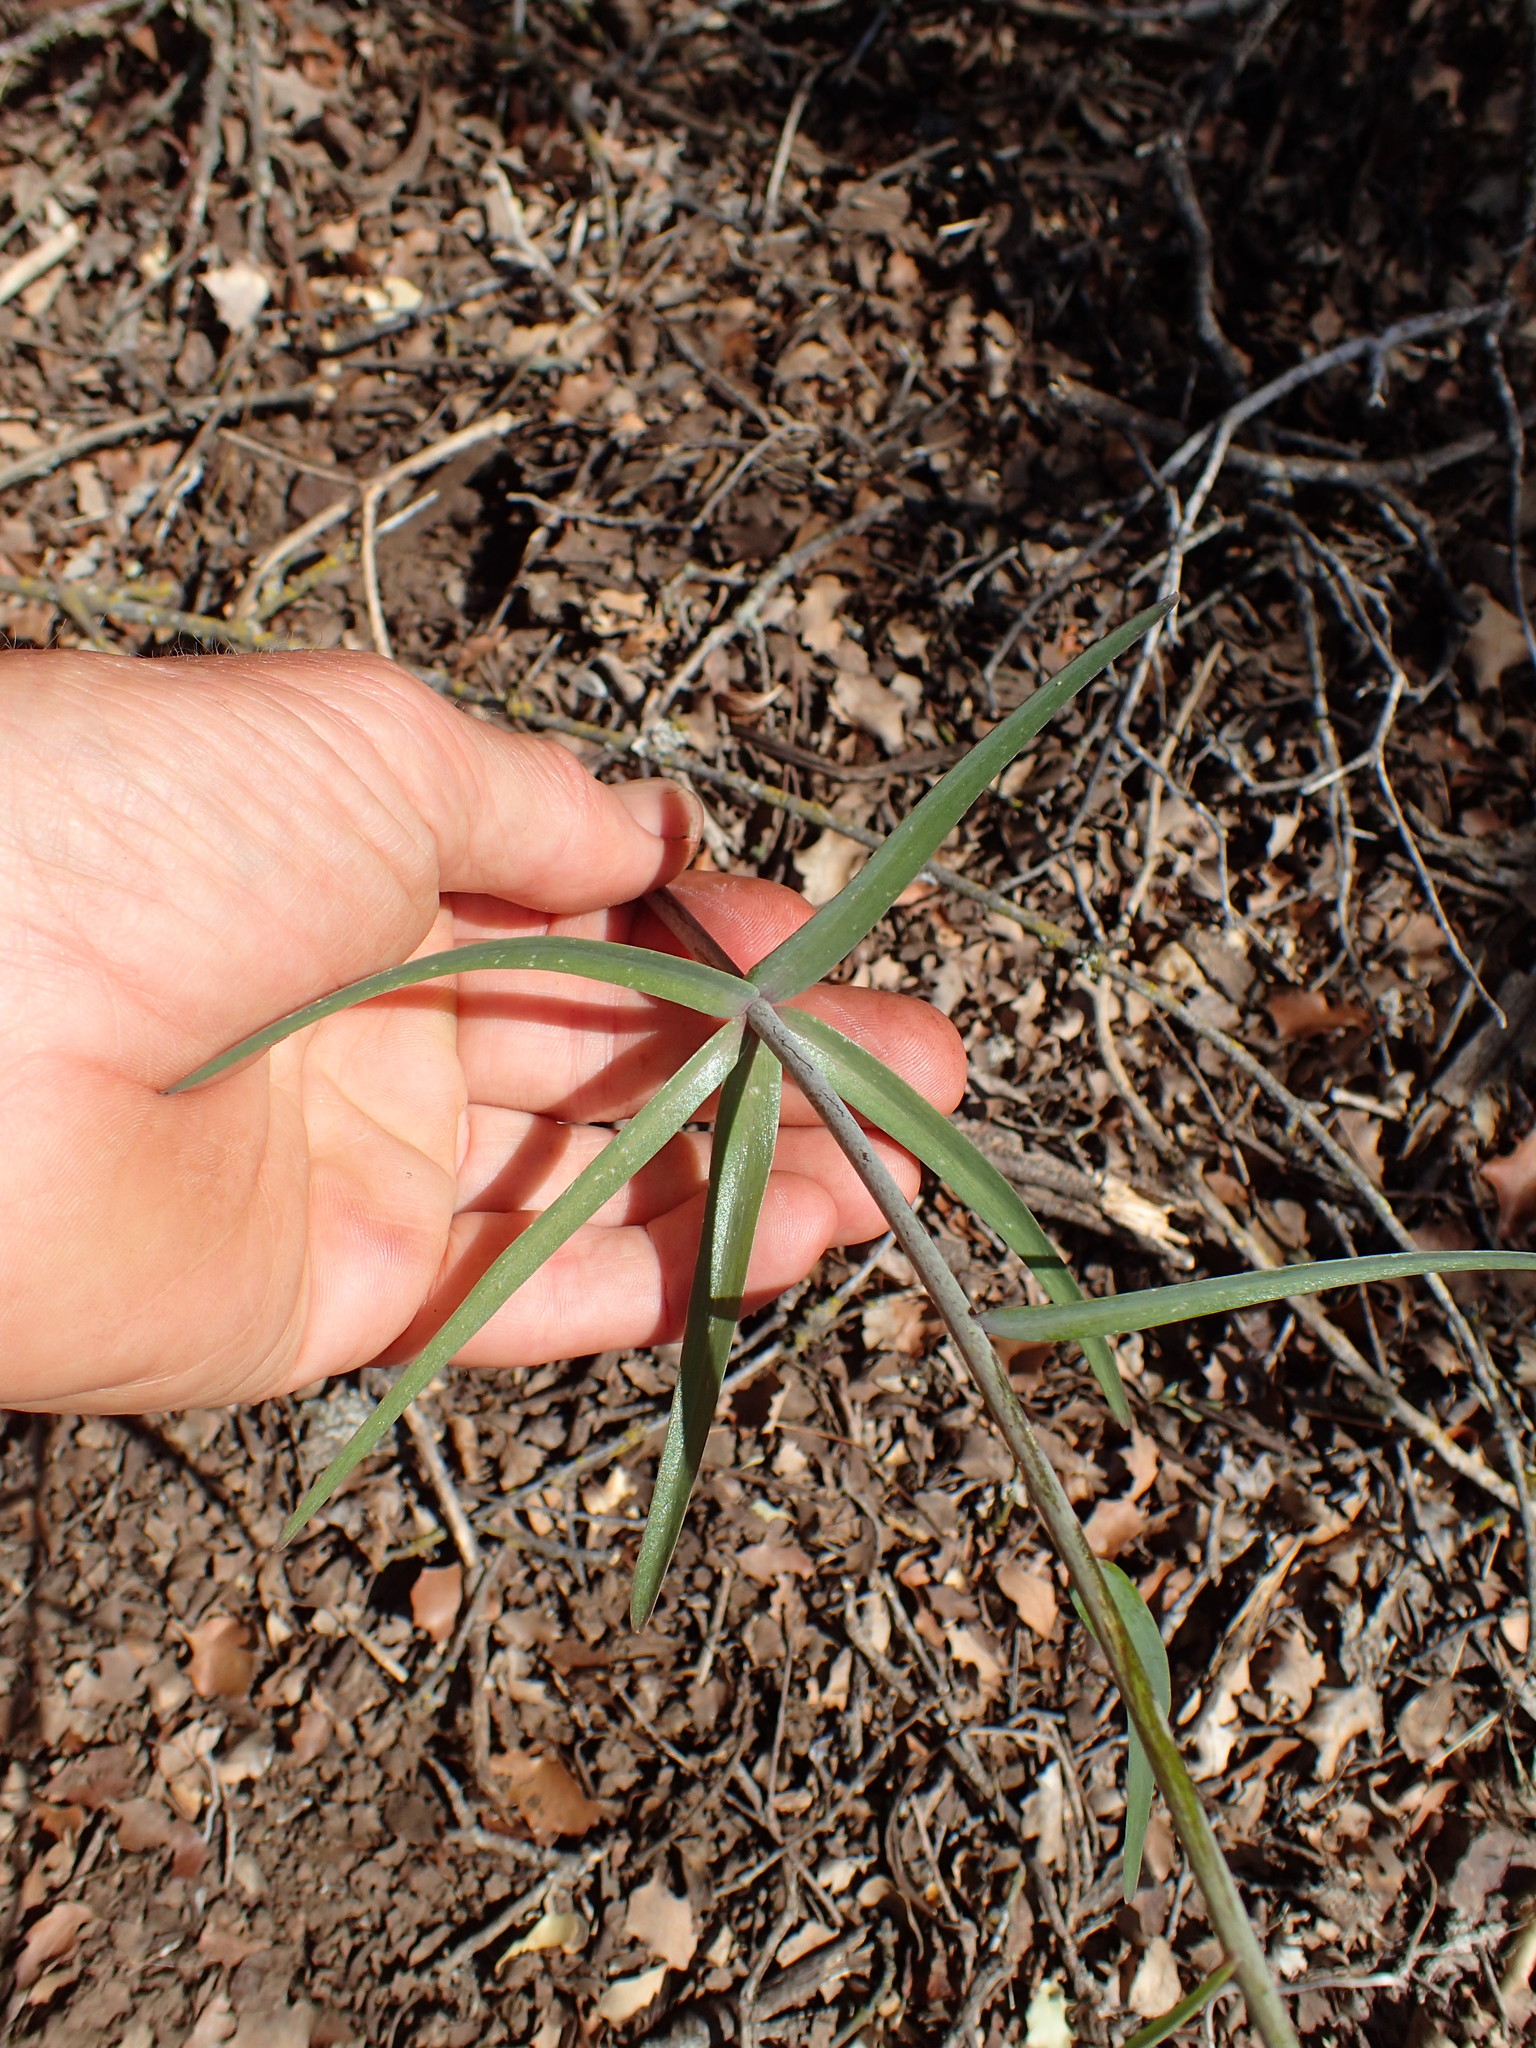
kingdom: Plantae
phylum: Tracheophyta
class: Liliopsida
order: Liliales
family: Liliaceae
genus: Fritillaria
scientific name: Fritillaria ojaiensis
